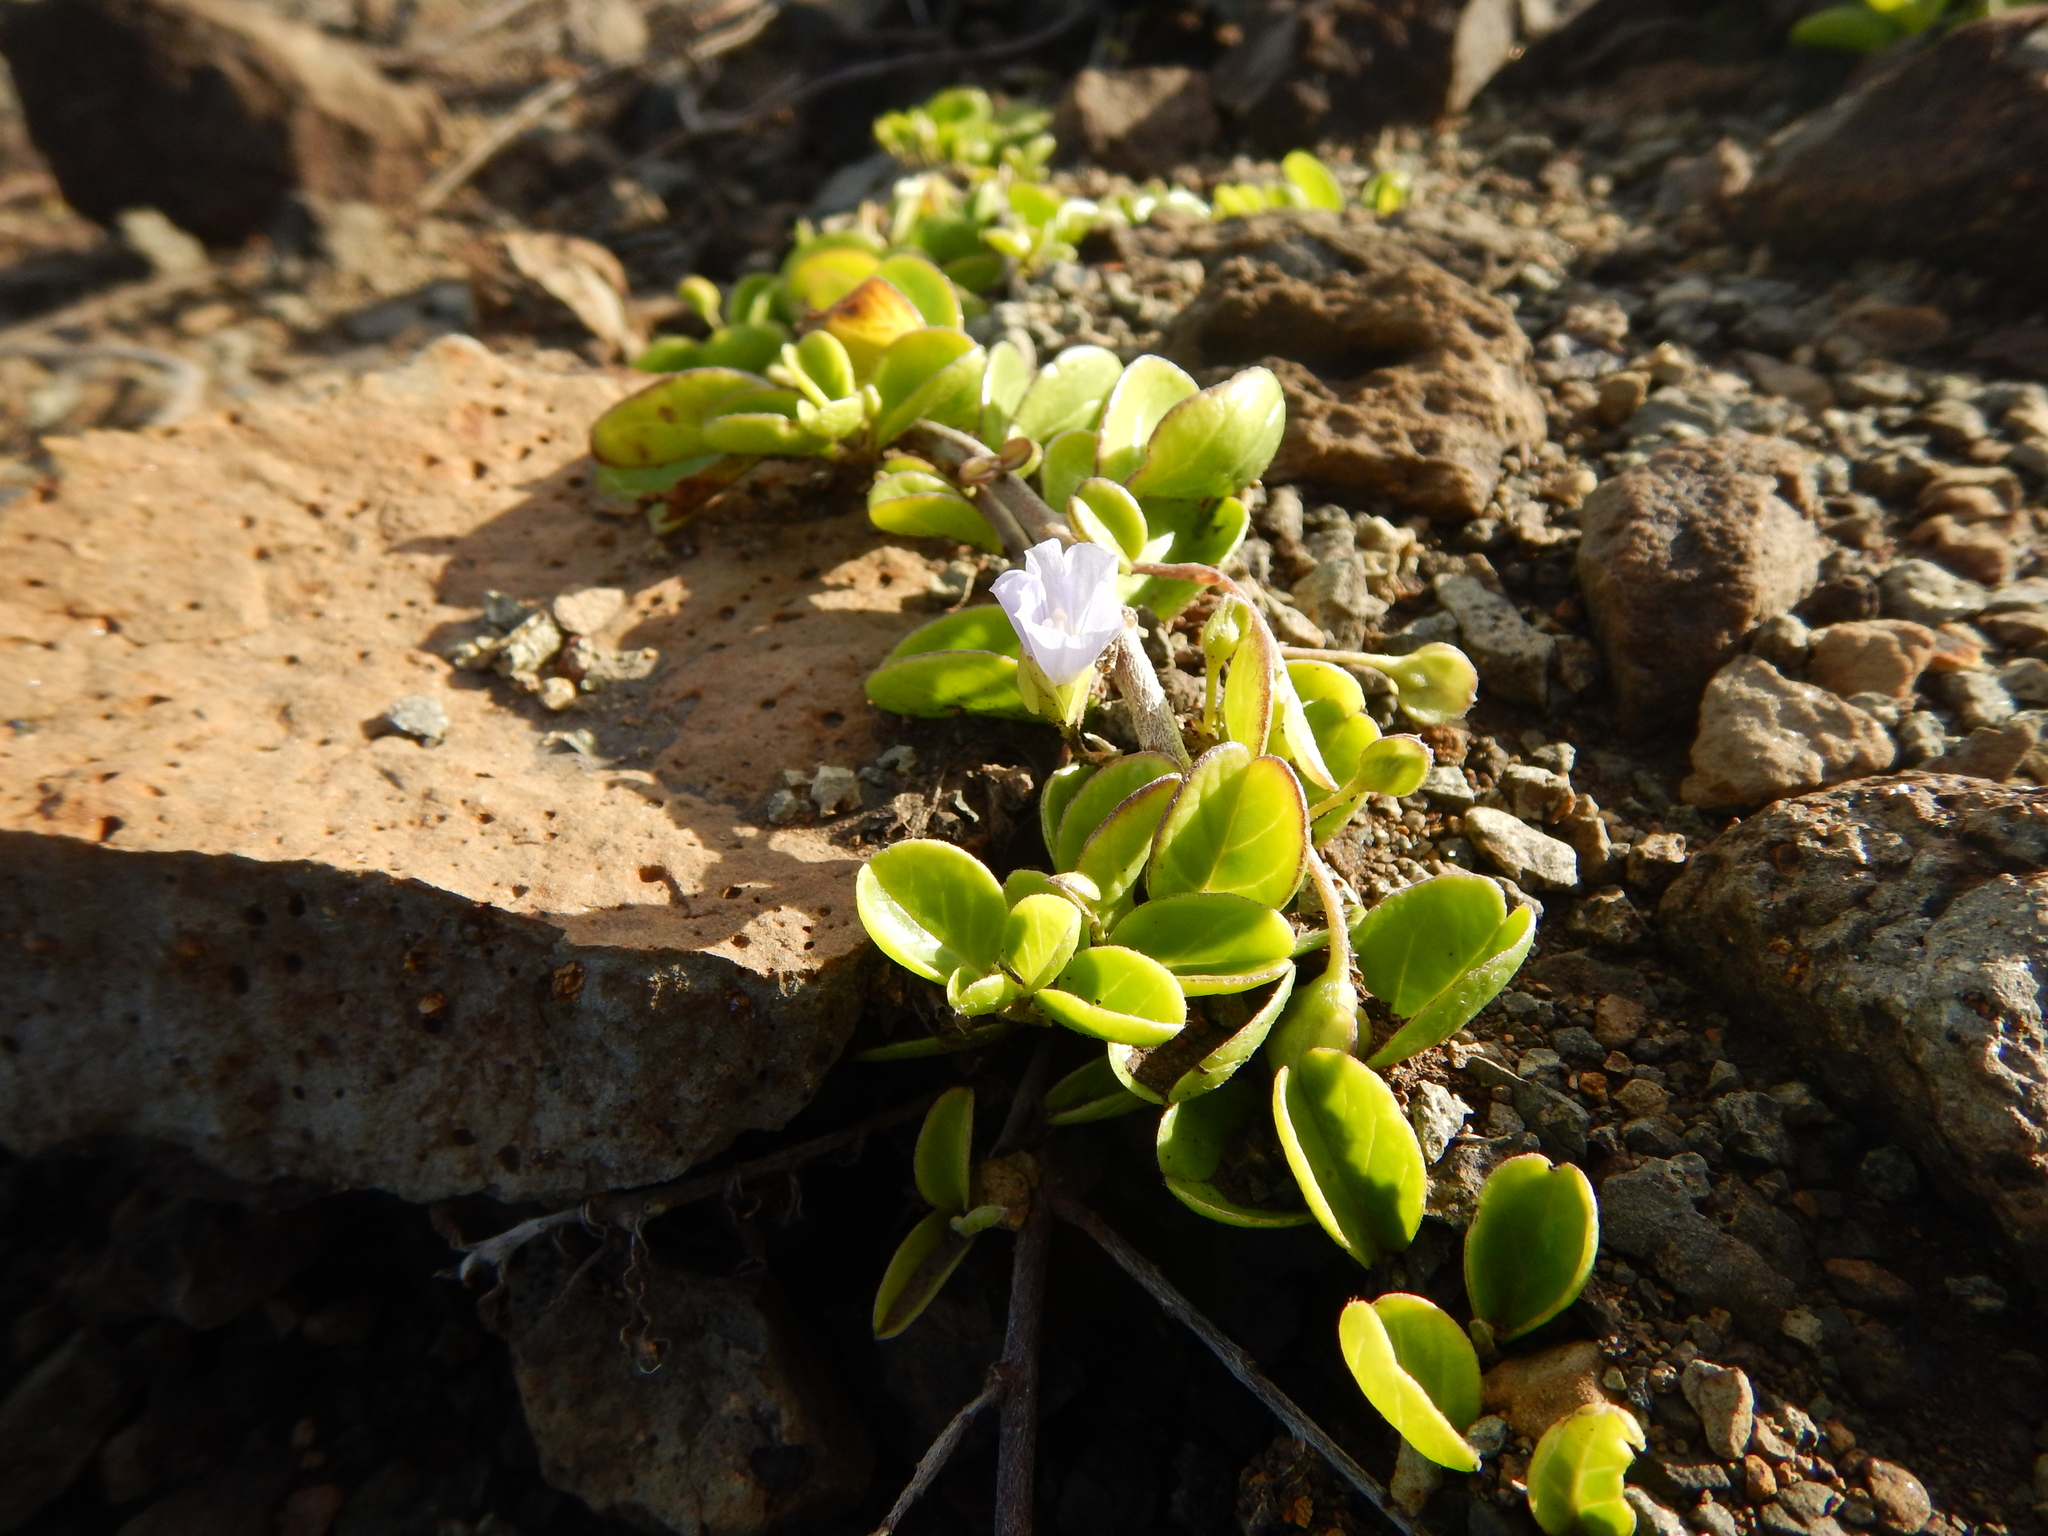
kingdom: Plantae
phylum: Tracheophyta
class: Magnoliopsida
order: Solanales
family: Convolvulaceae
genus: Jacquemontia
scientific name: Jacquemontia sandwicensis
